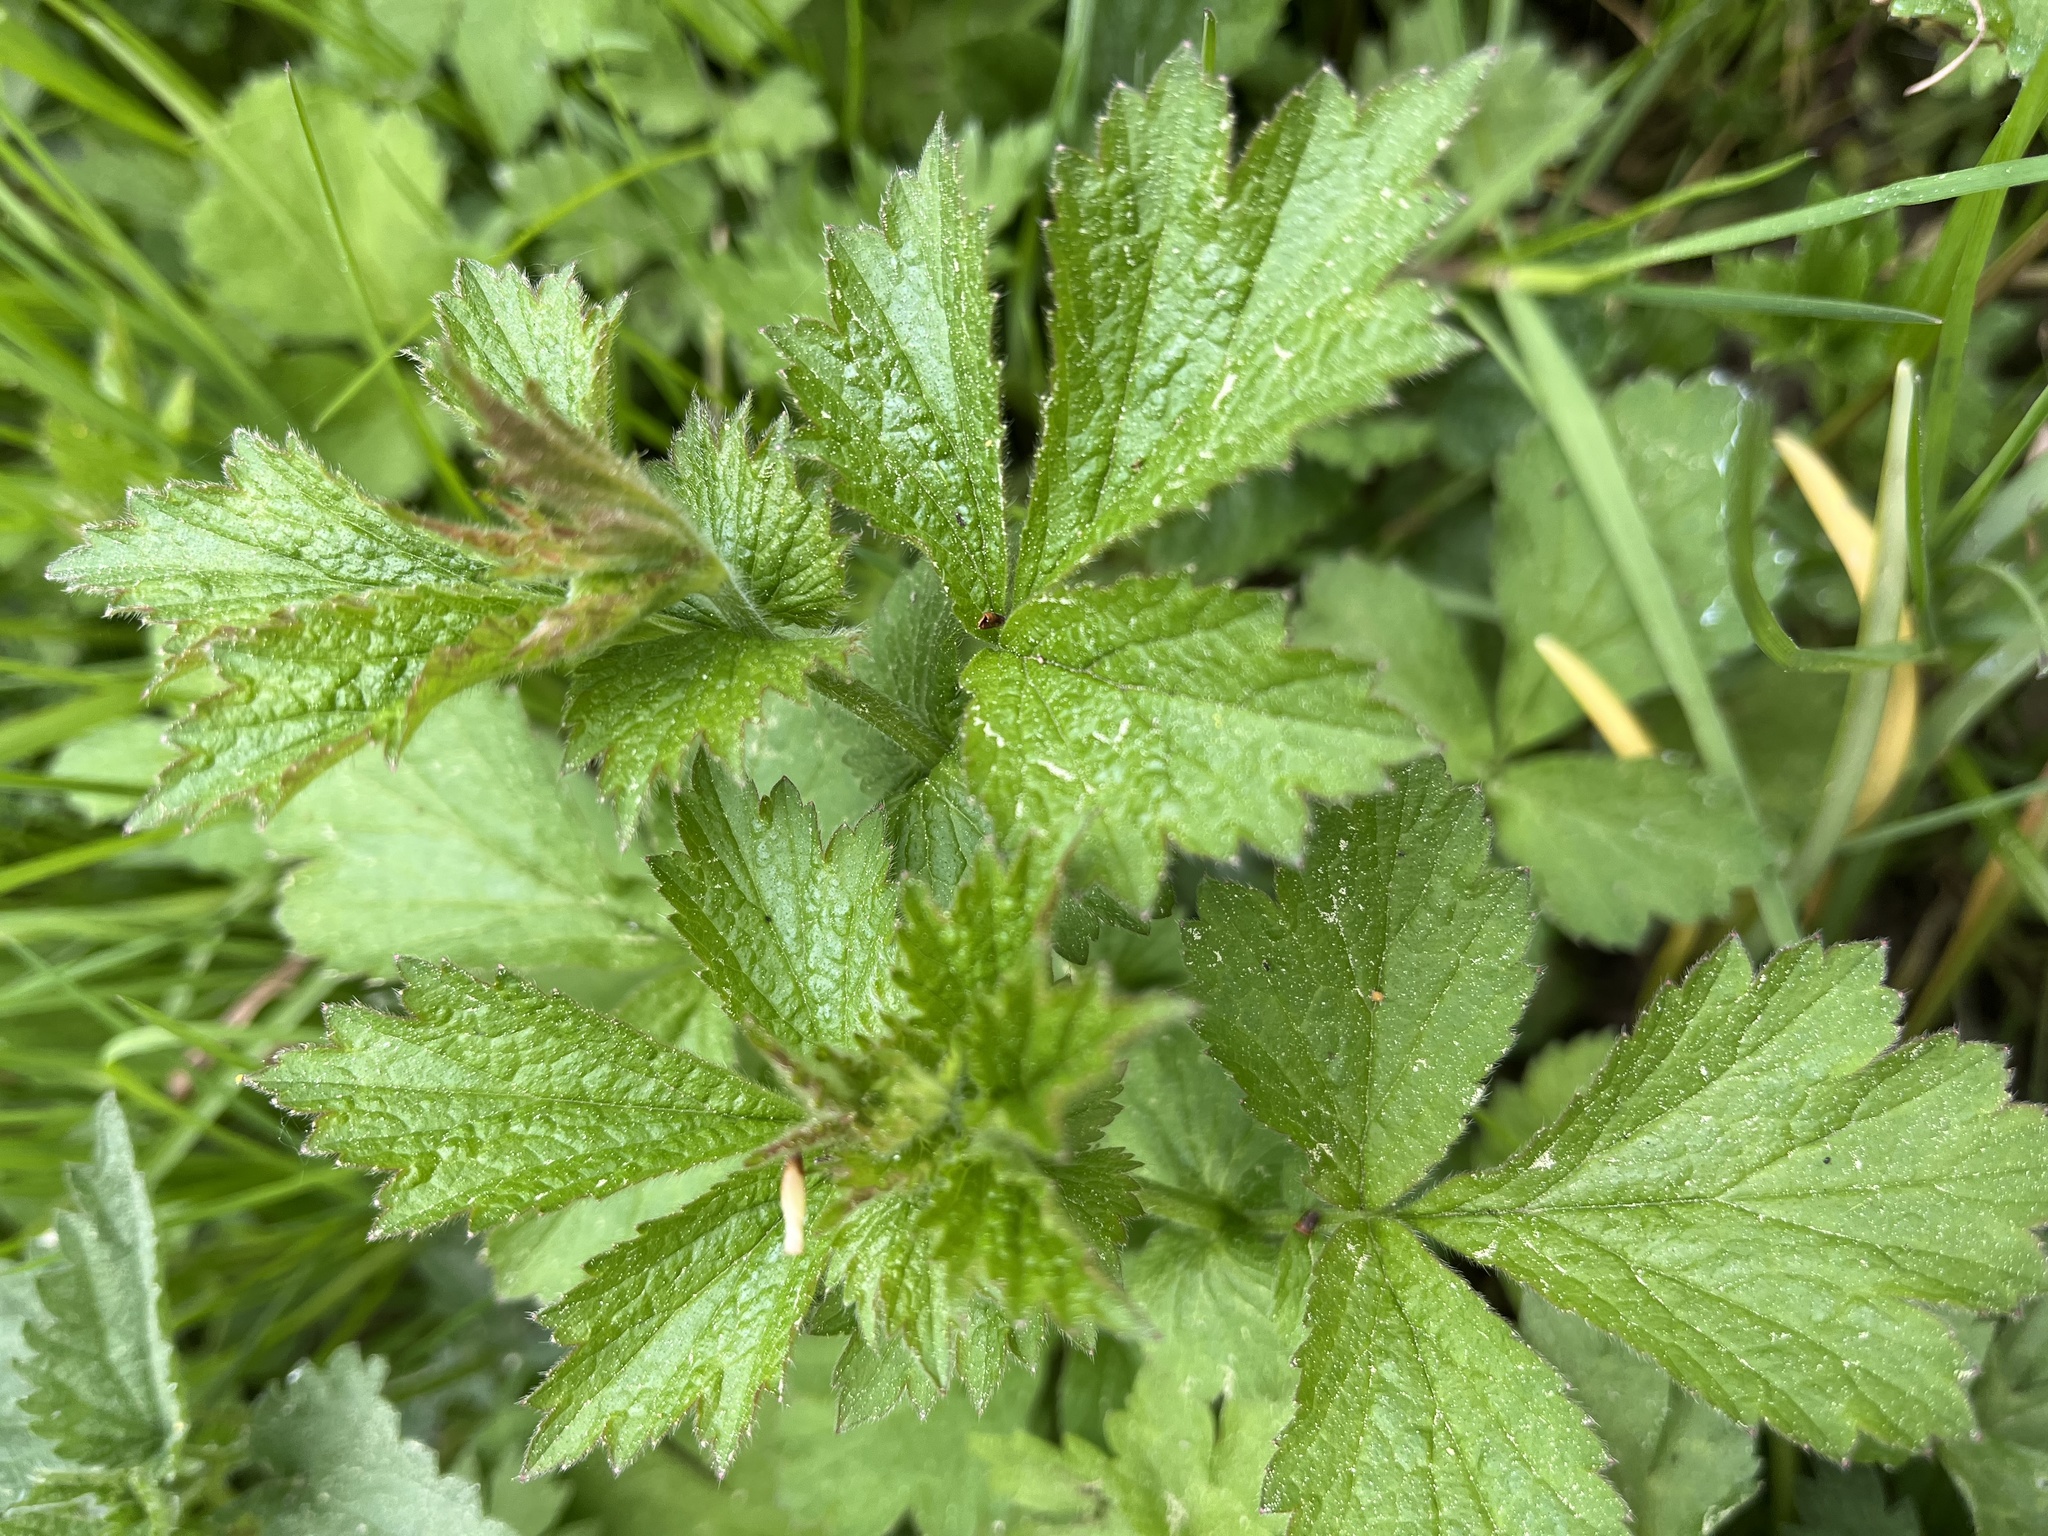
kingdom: Plantae
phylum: Tracheophyta
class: Magnoliopsida
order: Rosales
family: Rosaceae
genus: Geum
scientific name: Geum urbanum
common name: Wood avens
